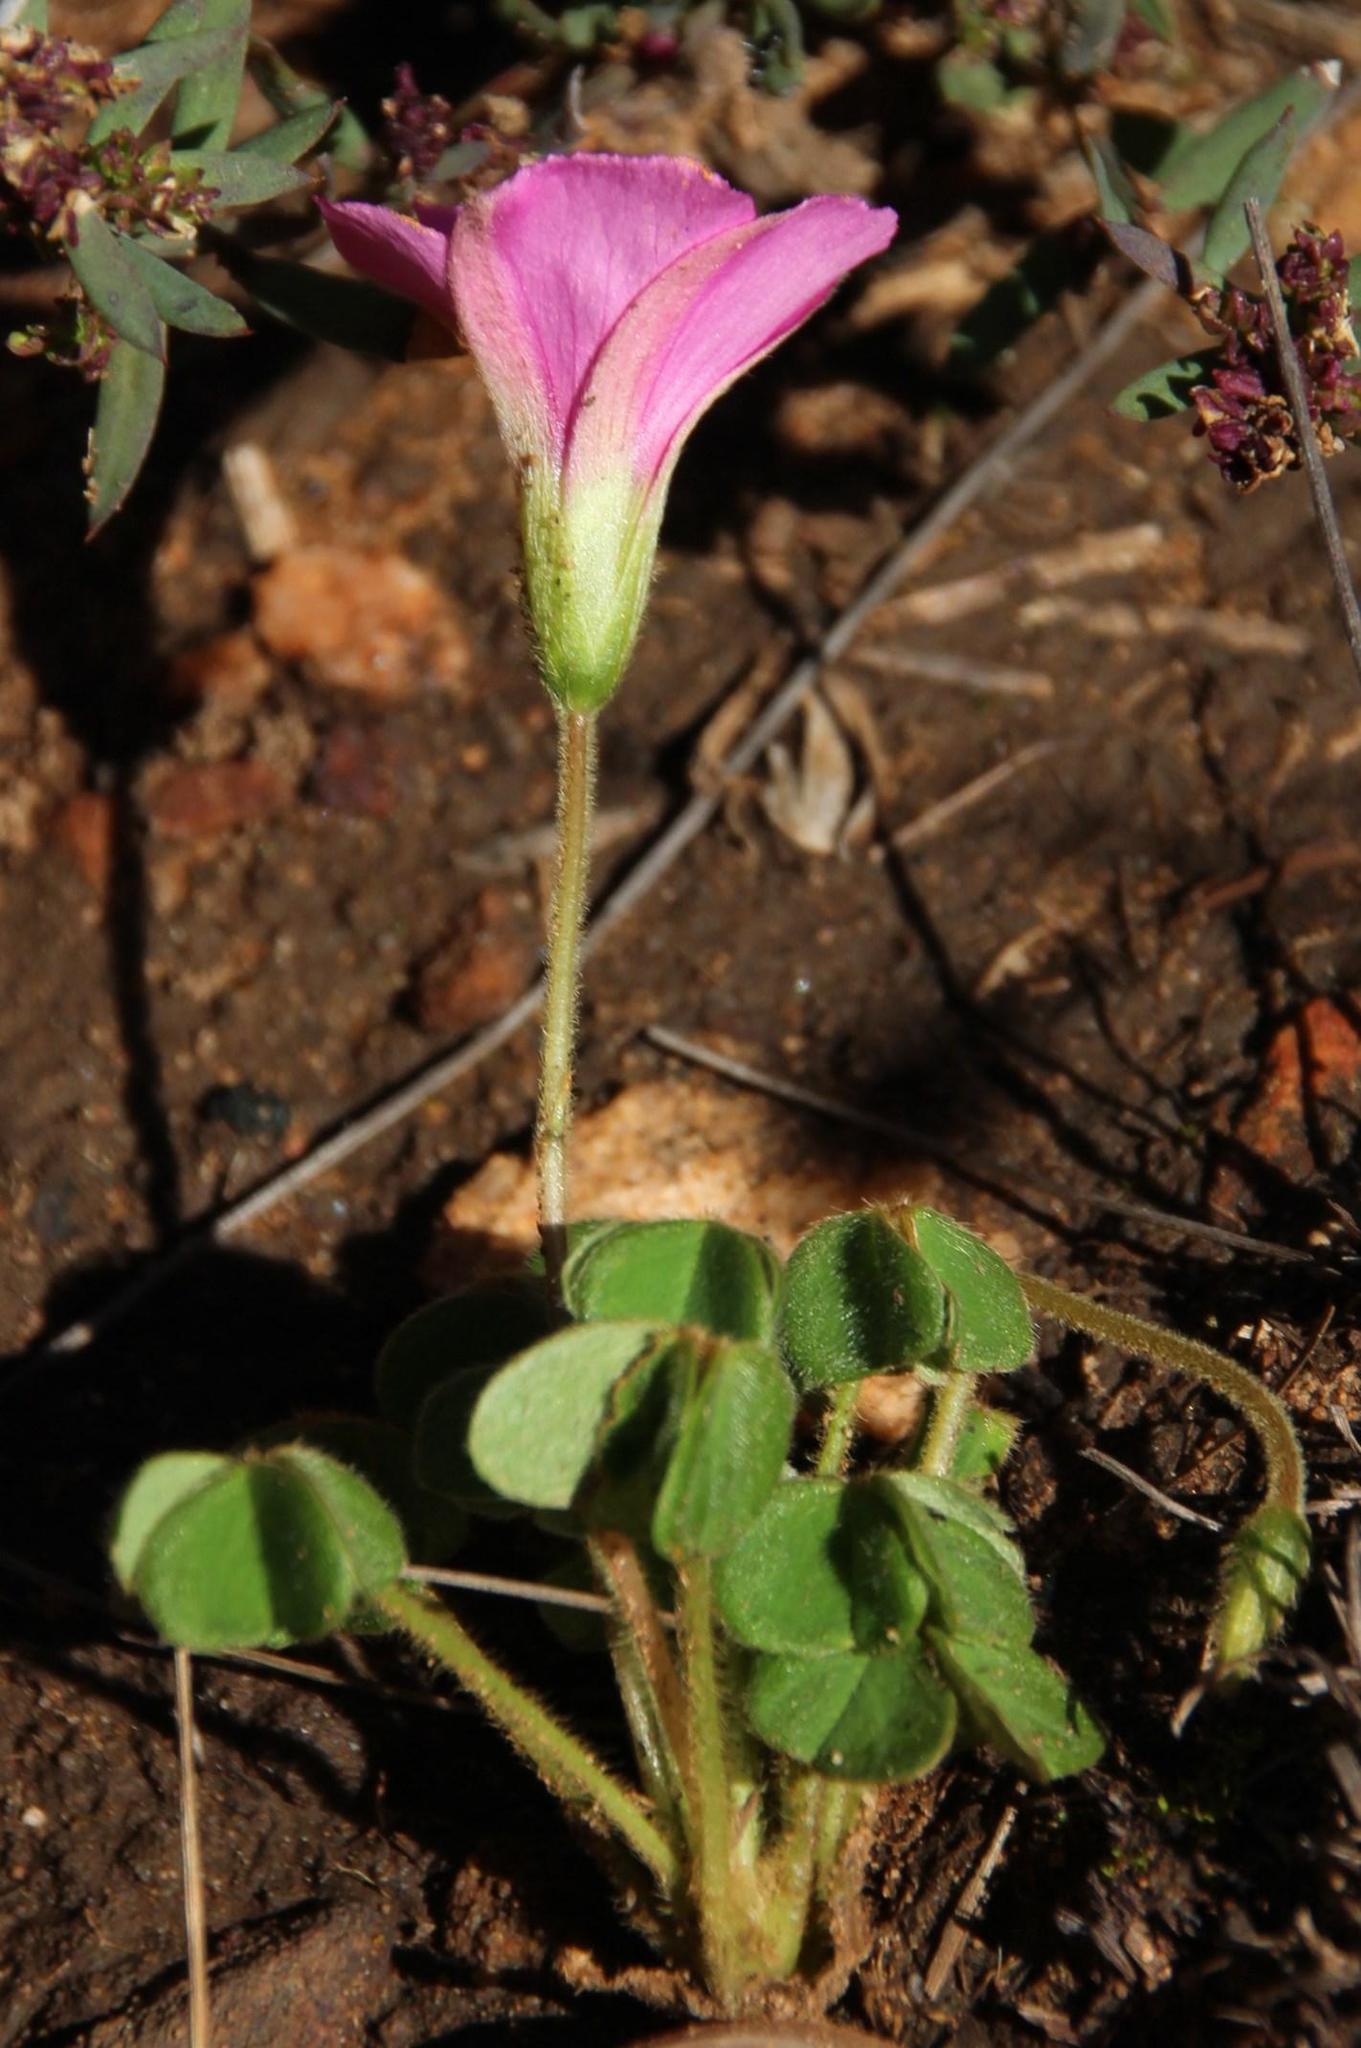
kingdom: Plantae
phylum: Tracheophyta
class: Magnoliopsida
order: Oxalidales
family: Oxalidaceae
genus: Oxalis
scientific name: Oxalis lanata
